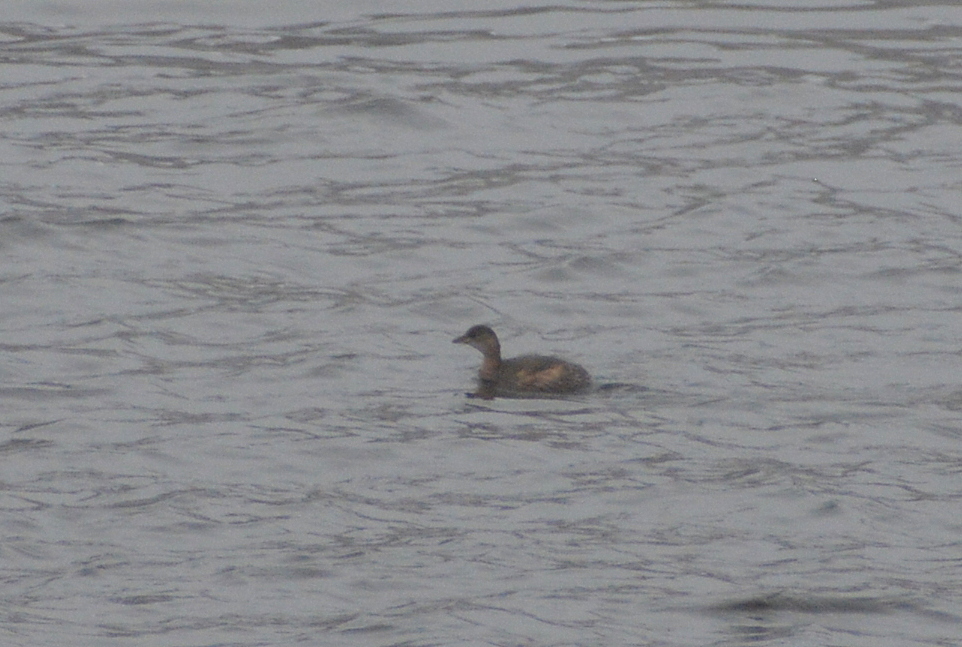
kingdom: Animalia
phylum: Chordata
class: Aves
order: Podicipediformes
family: Podicipedidae
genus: Tachybaptus
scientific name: Tachybaptus ruficollis
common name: Little grebe
